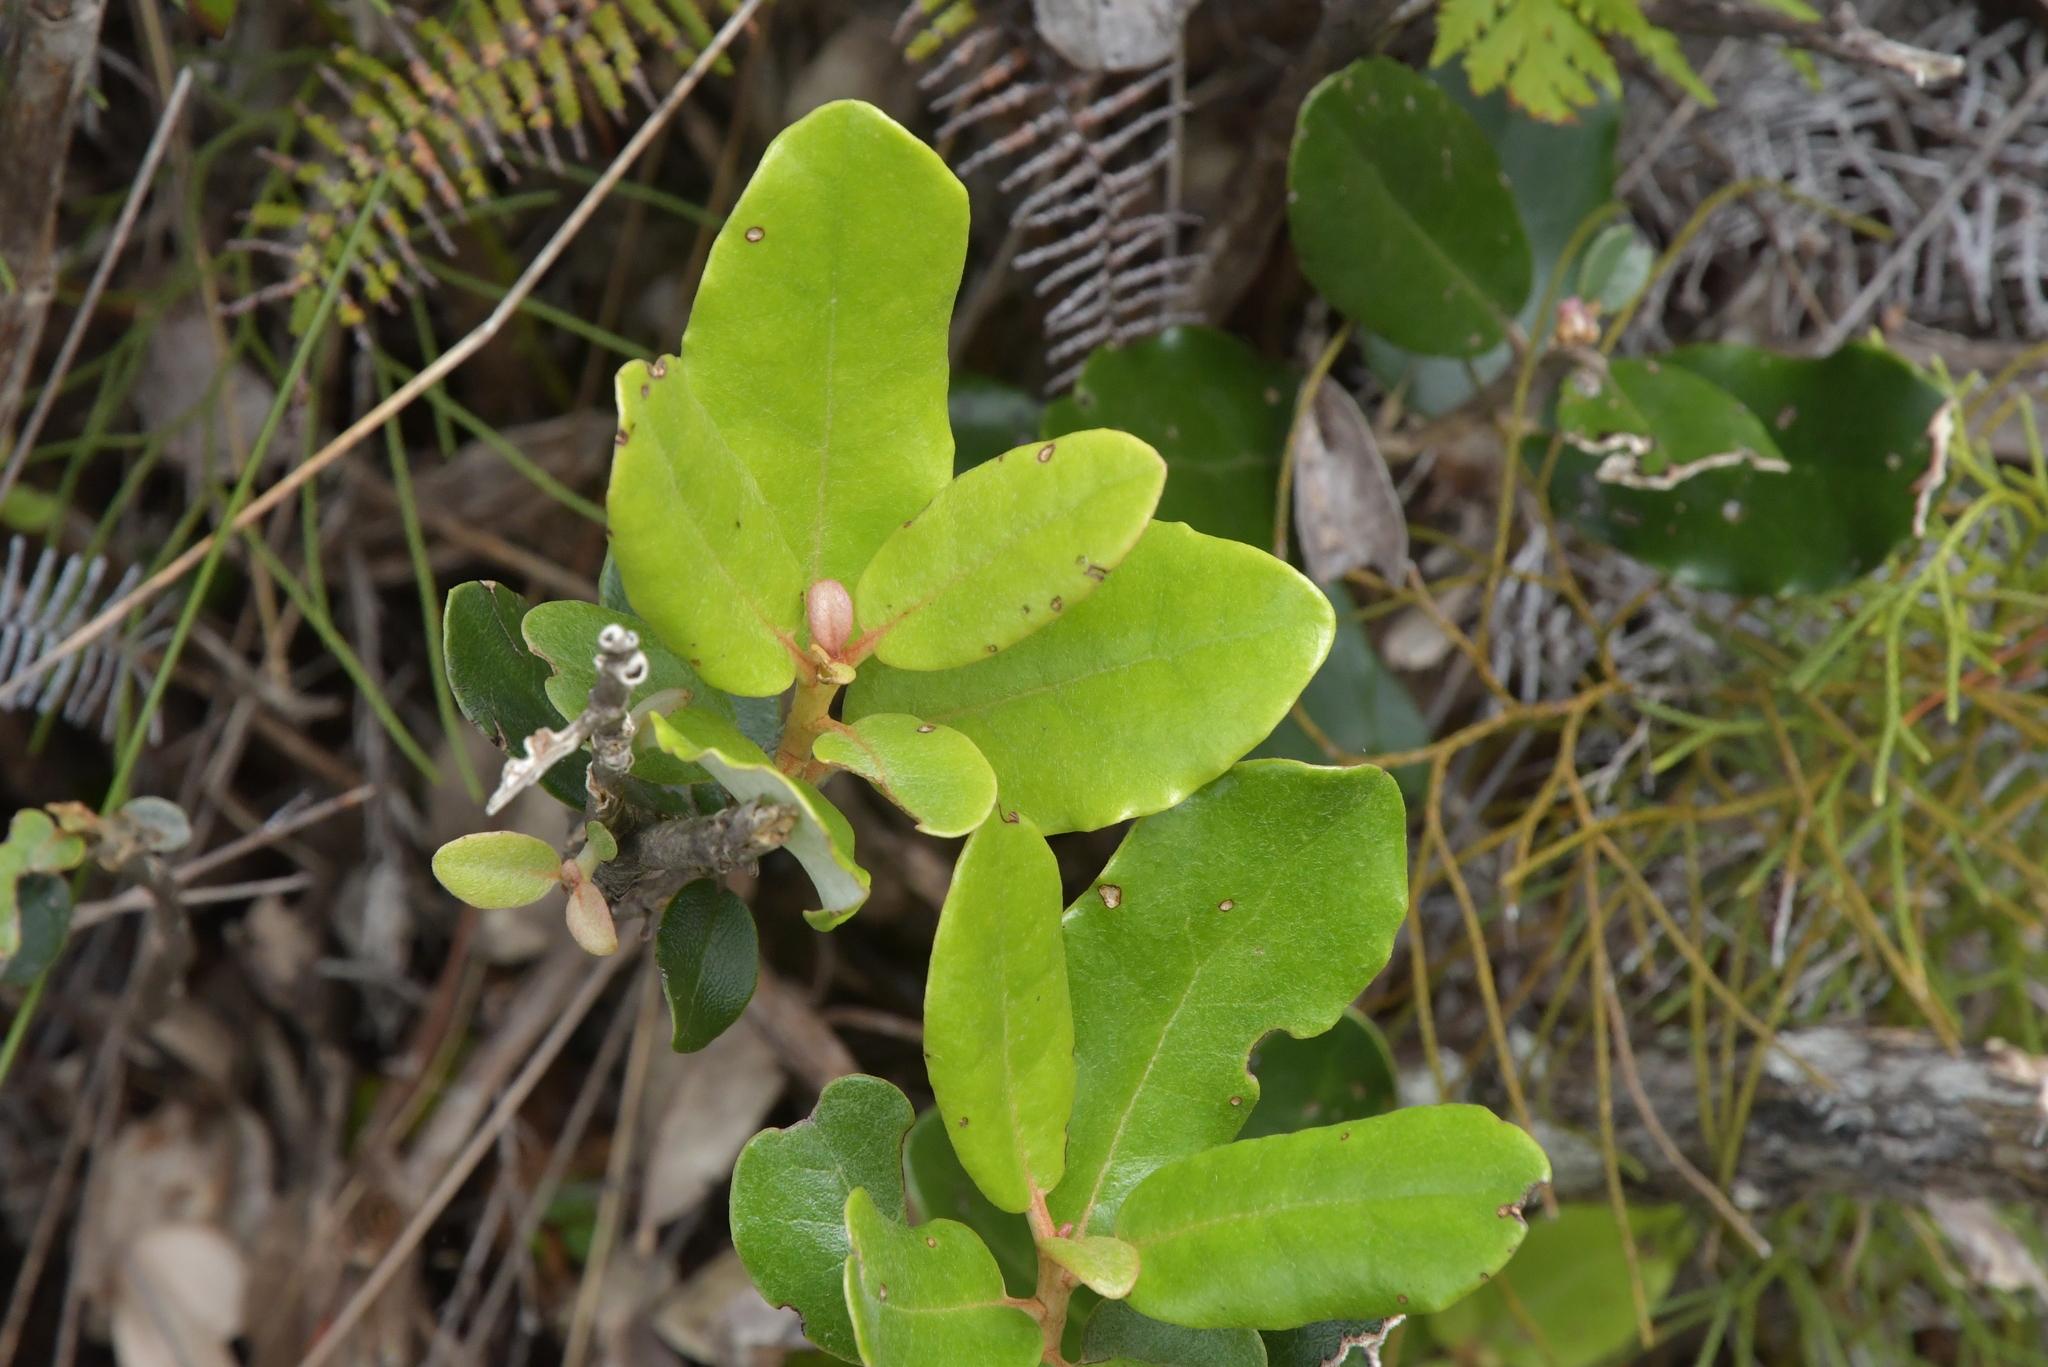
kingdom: Plantae
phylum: Tracheophyta
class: Magnoliopsida
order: Asterales
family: Asteraceae
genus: Olearia
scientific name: Olearia allomii
